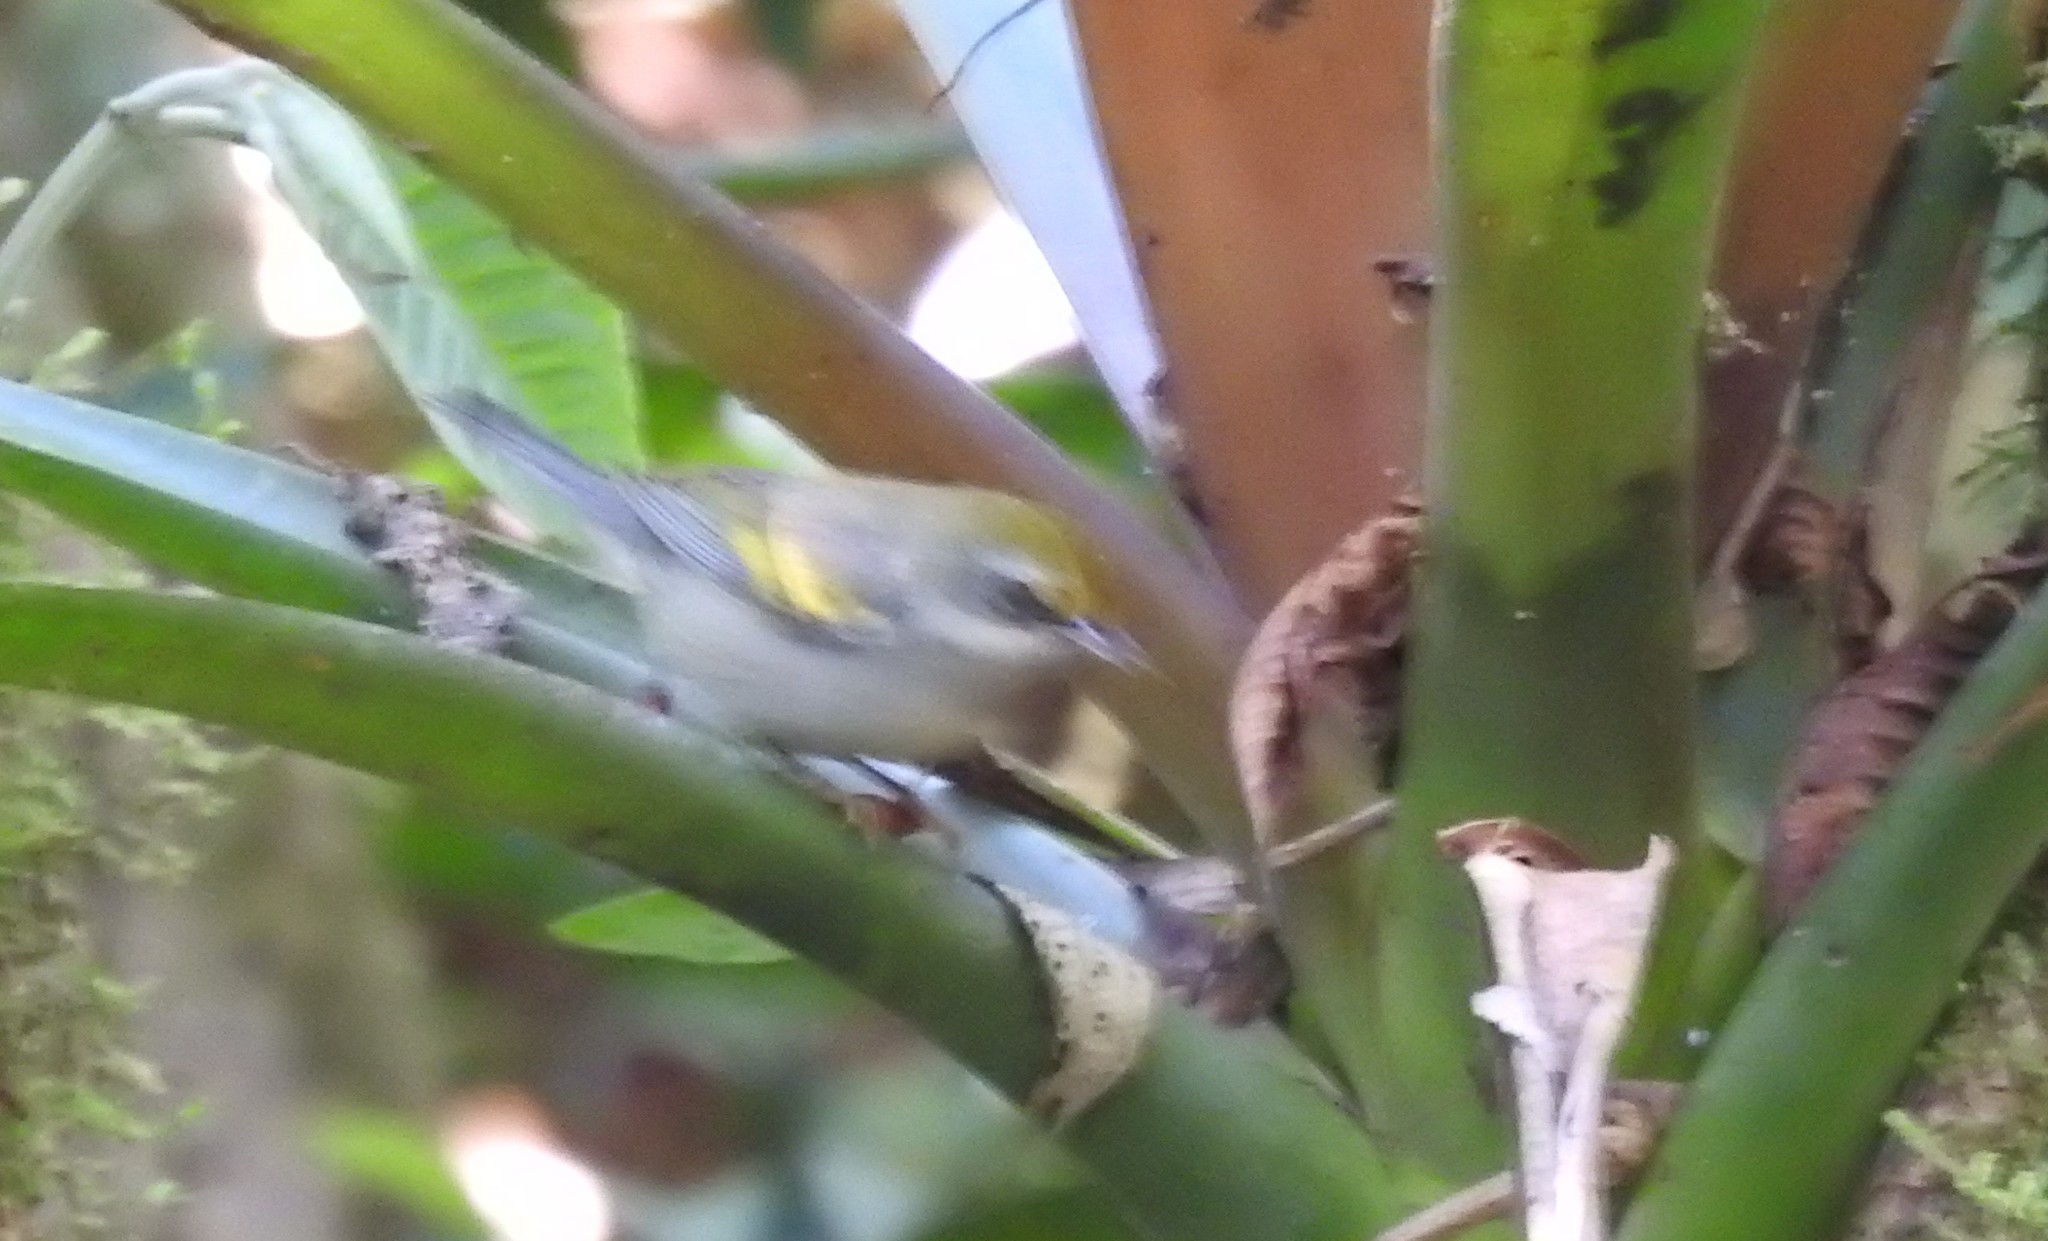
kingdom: Animalia
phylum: Chordata
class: Aves
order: Passeriformes
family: Parulidae
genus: Vermivora
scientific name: Vermivora chrysoptera
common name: Golden-winged warbler
